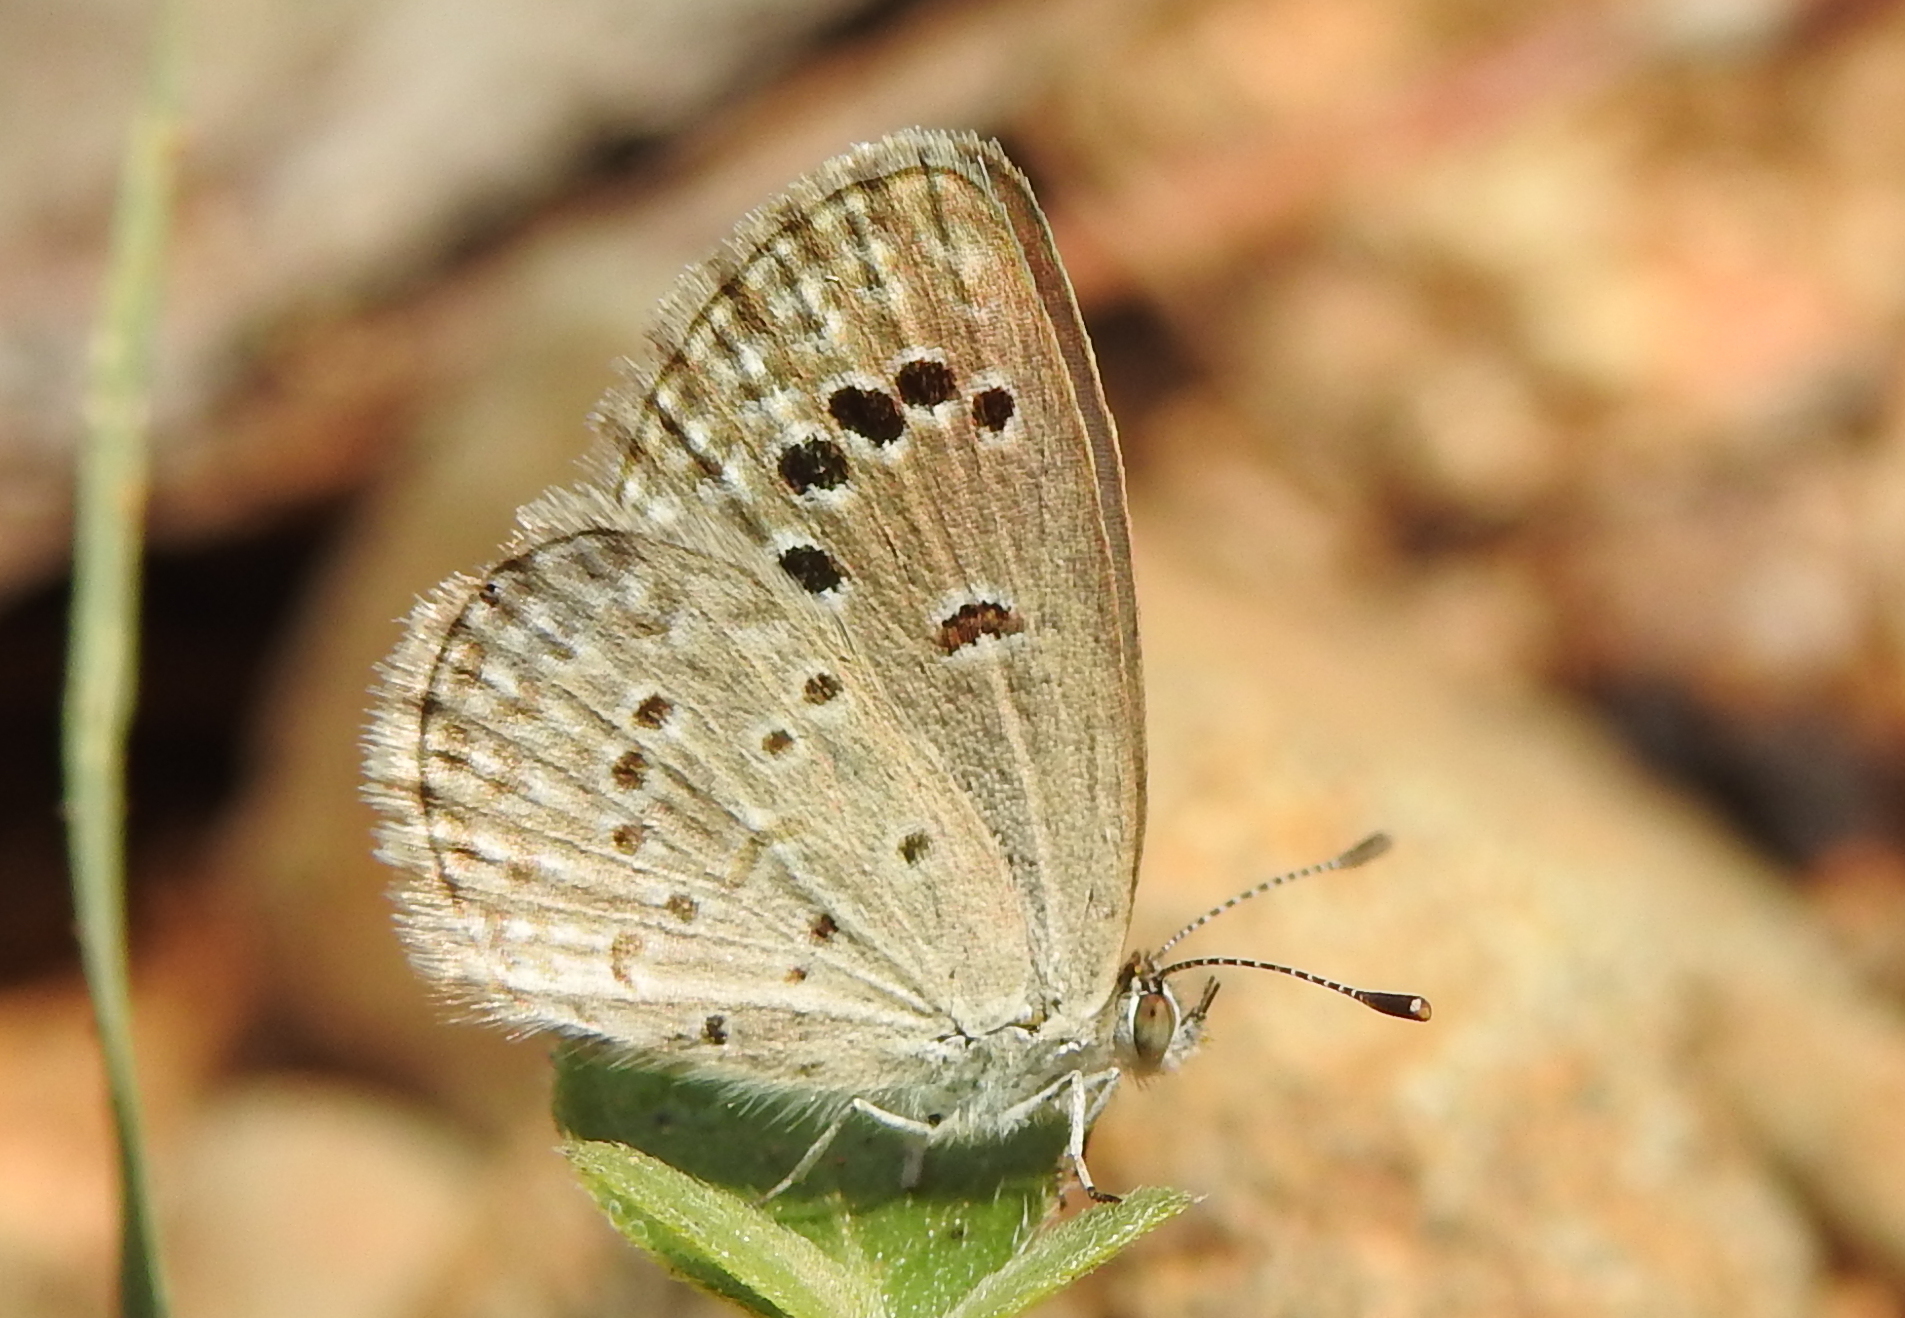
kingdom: Animalia
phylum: Arthropoda
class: Insecta
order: Lepidoptera
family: Lycaenidae
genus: Zizina
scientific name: Zizina otis
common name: Lesser grass blue
